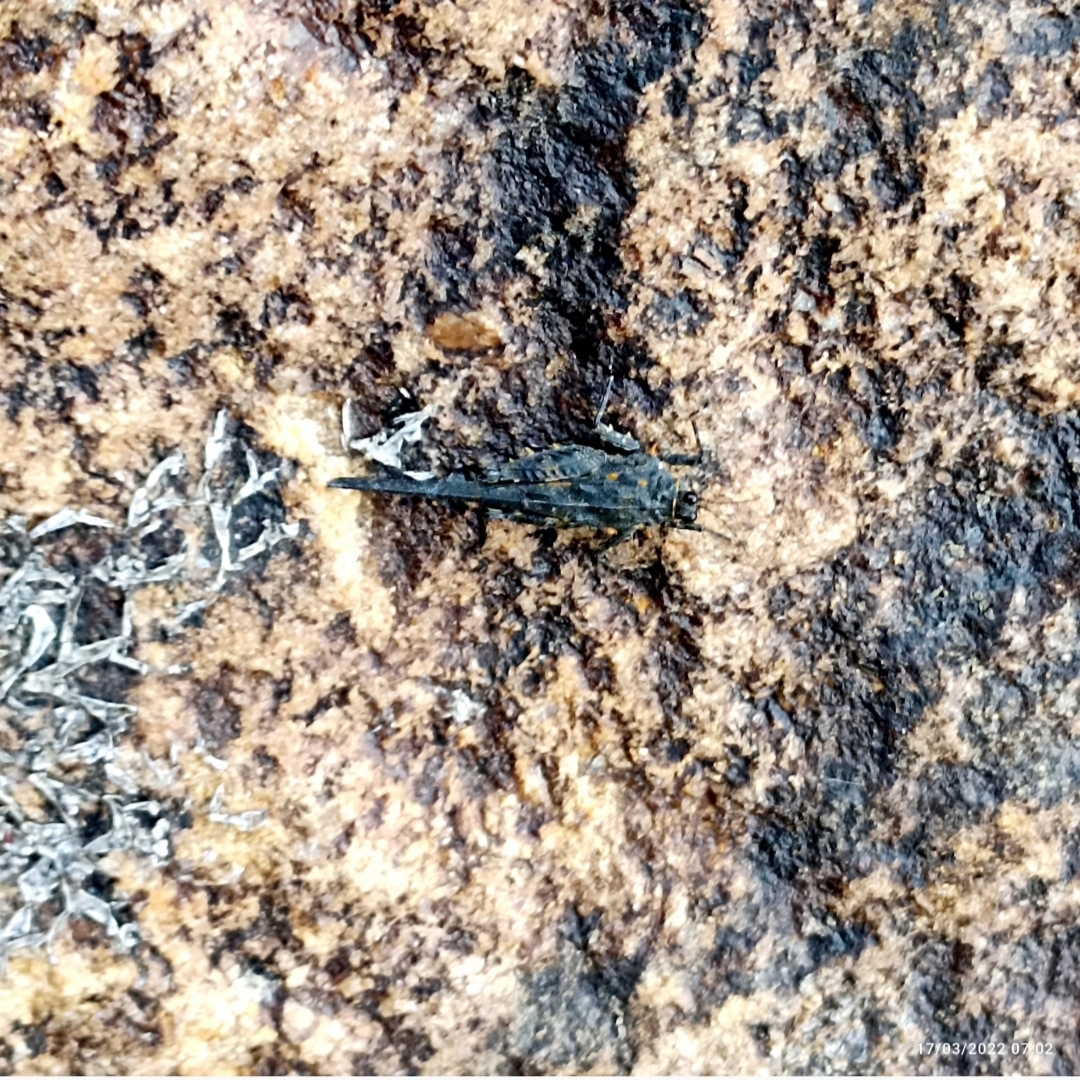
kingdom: Animalia
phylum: Arthropoda
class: Insecta
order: Orthoptera
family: Tetrigidae
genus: Euscelimena
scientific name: Euscelimena harpago
